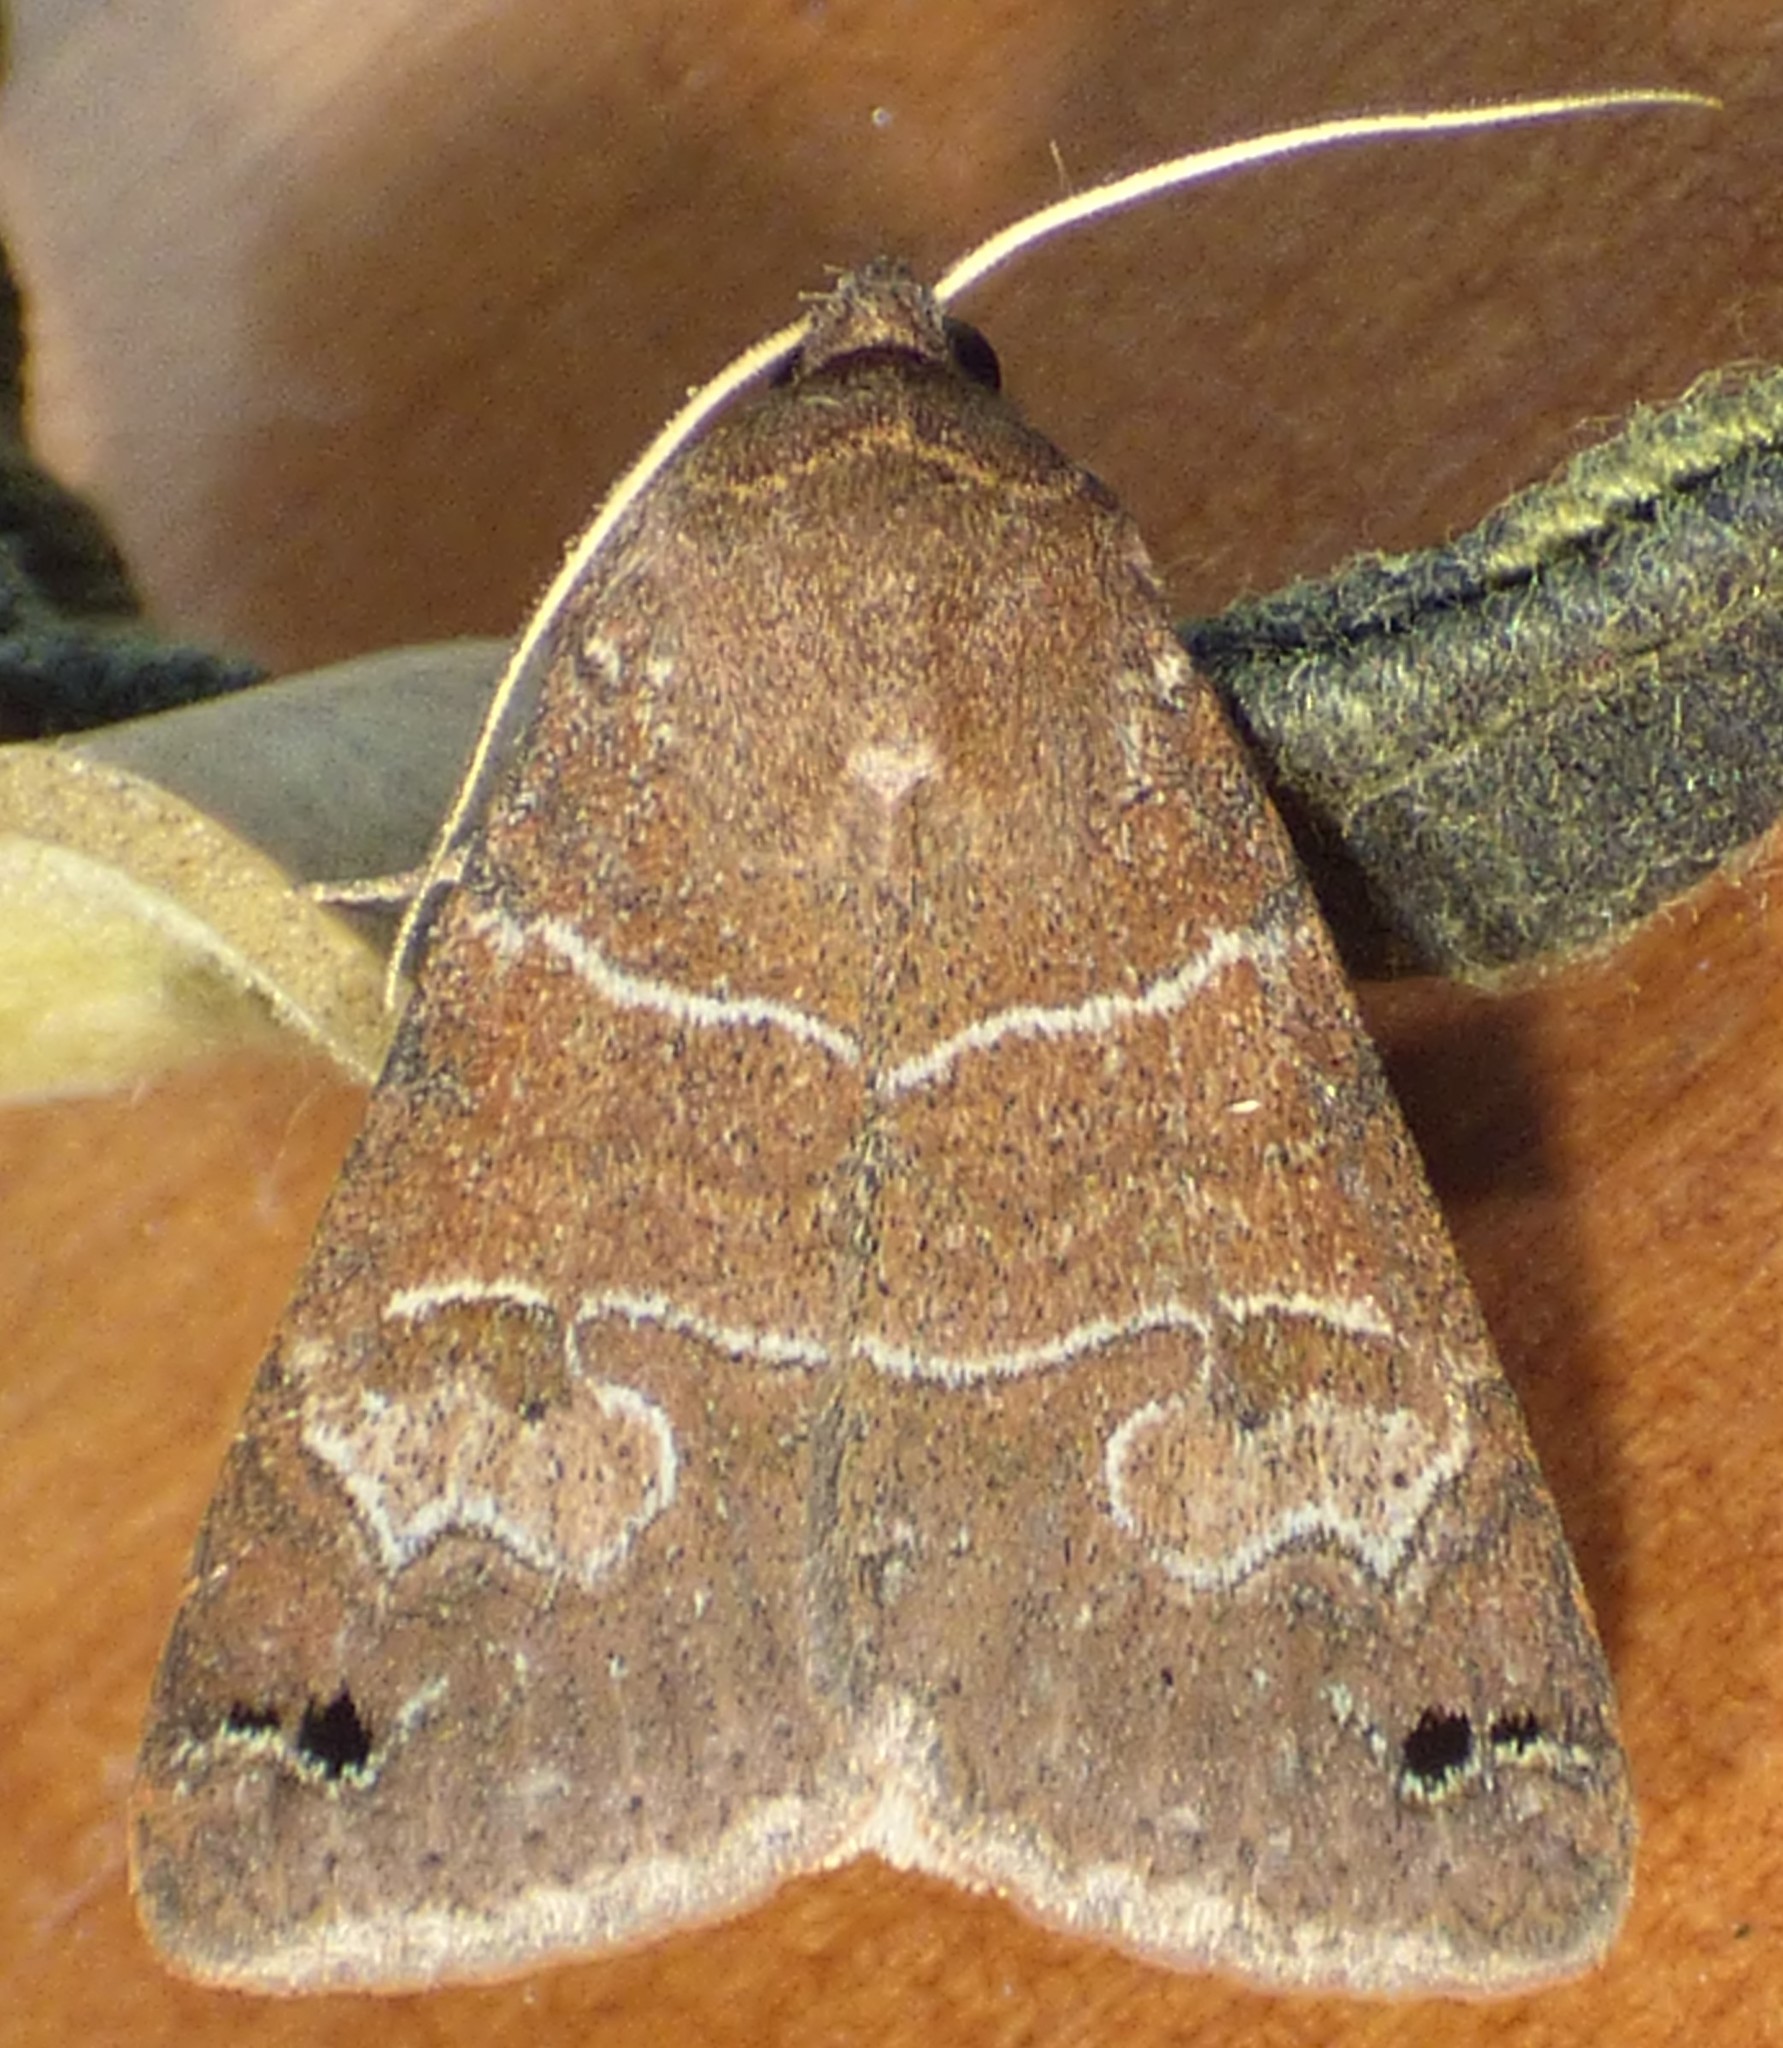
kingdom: Animalia
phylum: Arthropoda
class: Insecta
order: Lepidoptera
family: Erebidae
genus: Cissusa
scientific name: Cissusa spadix
